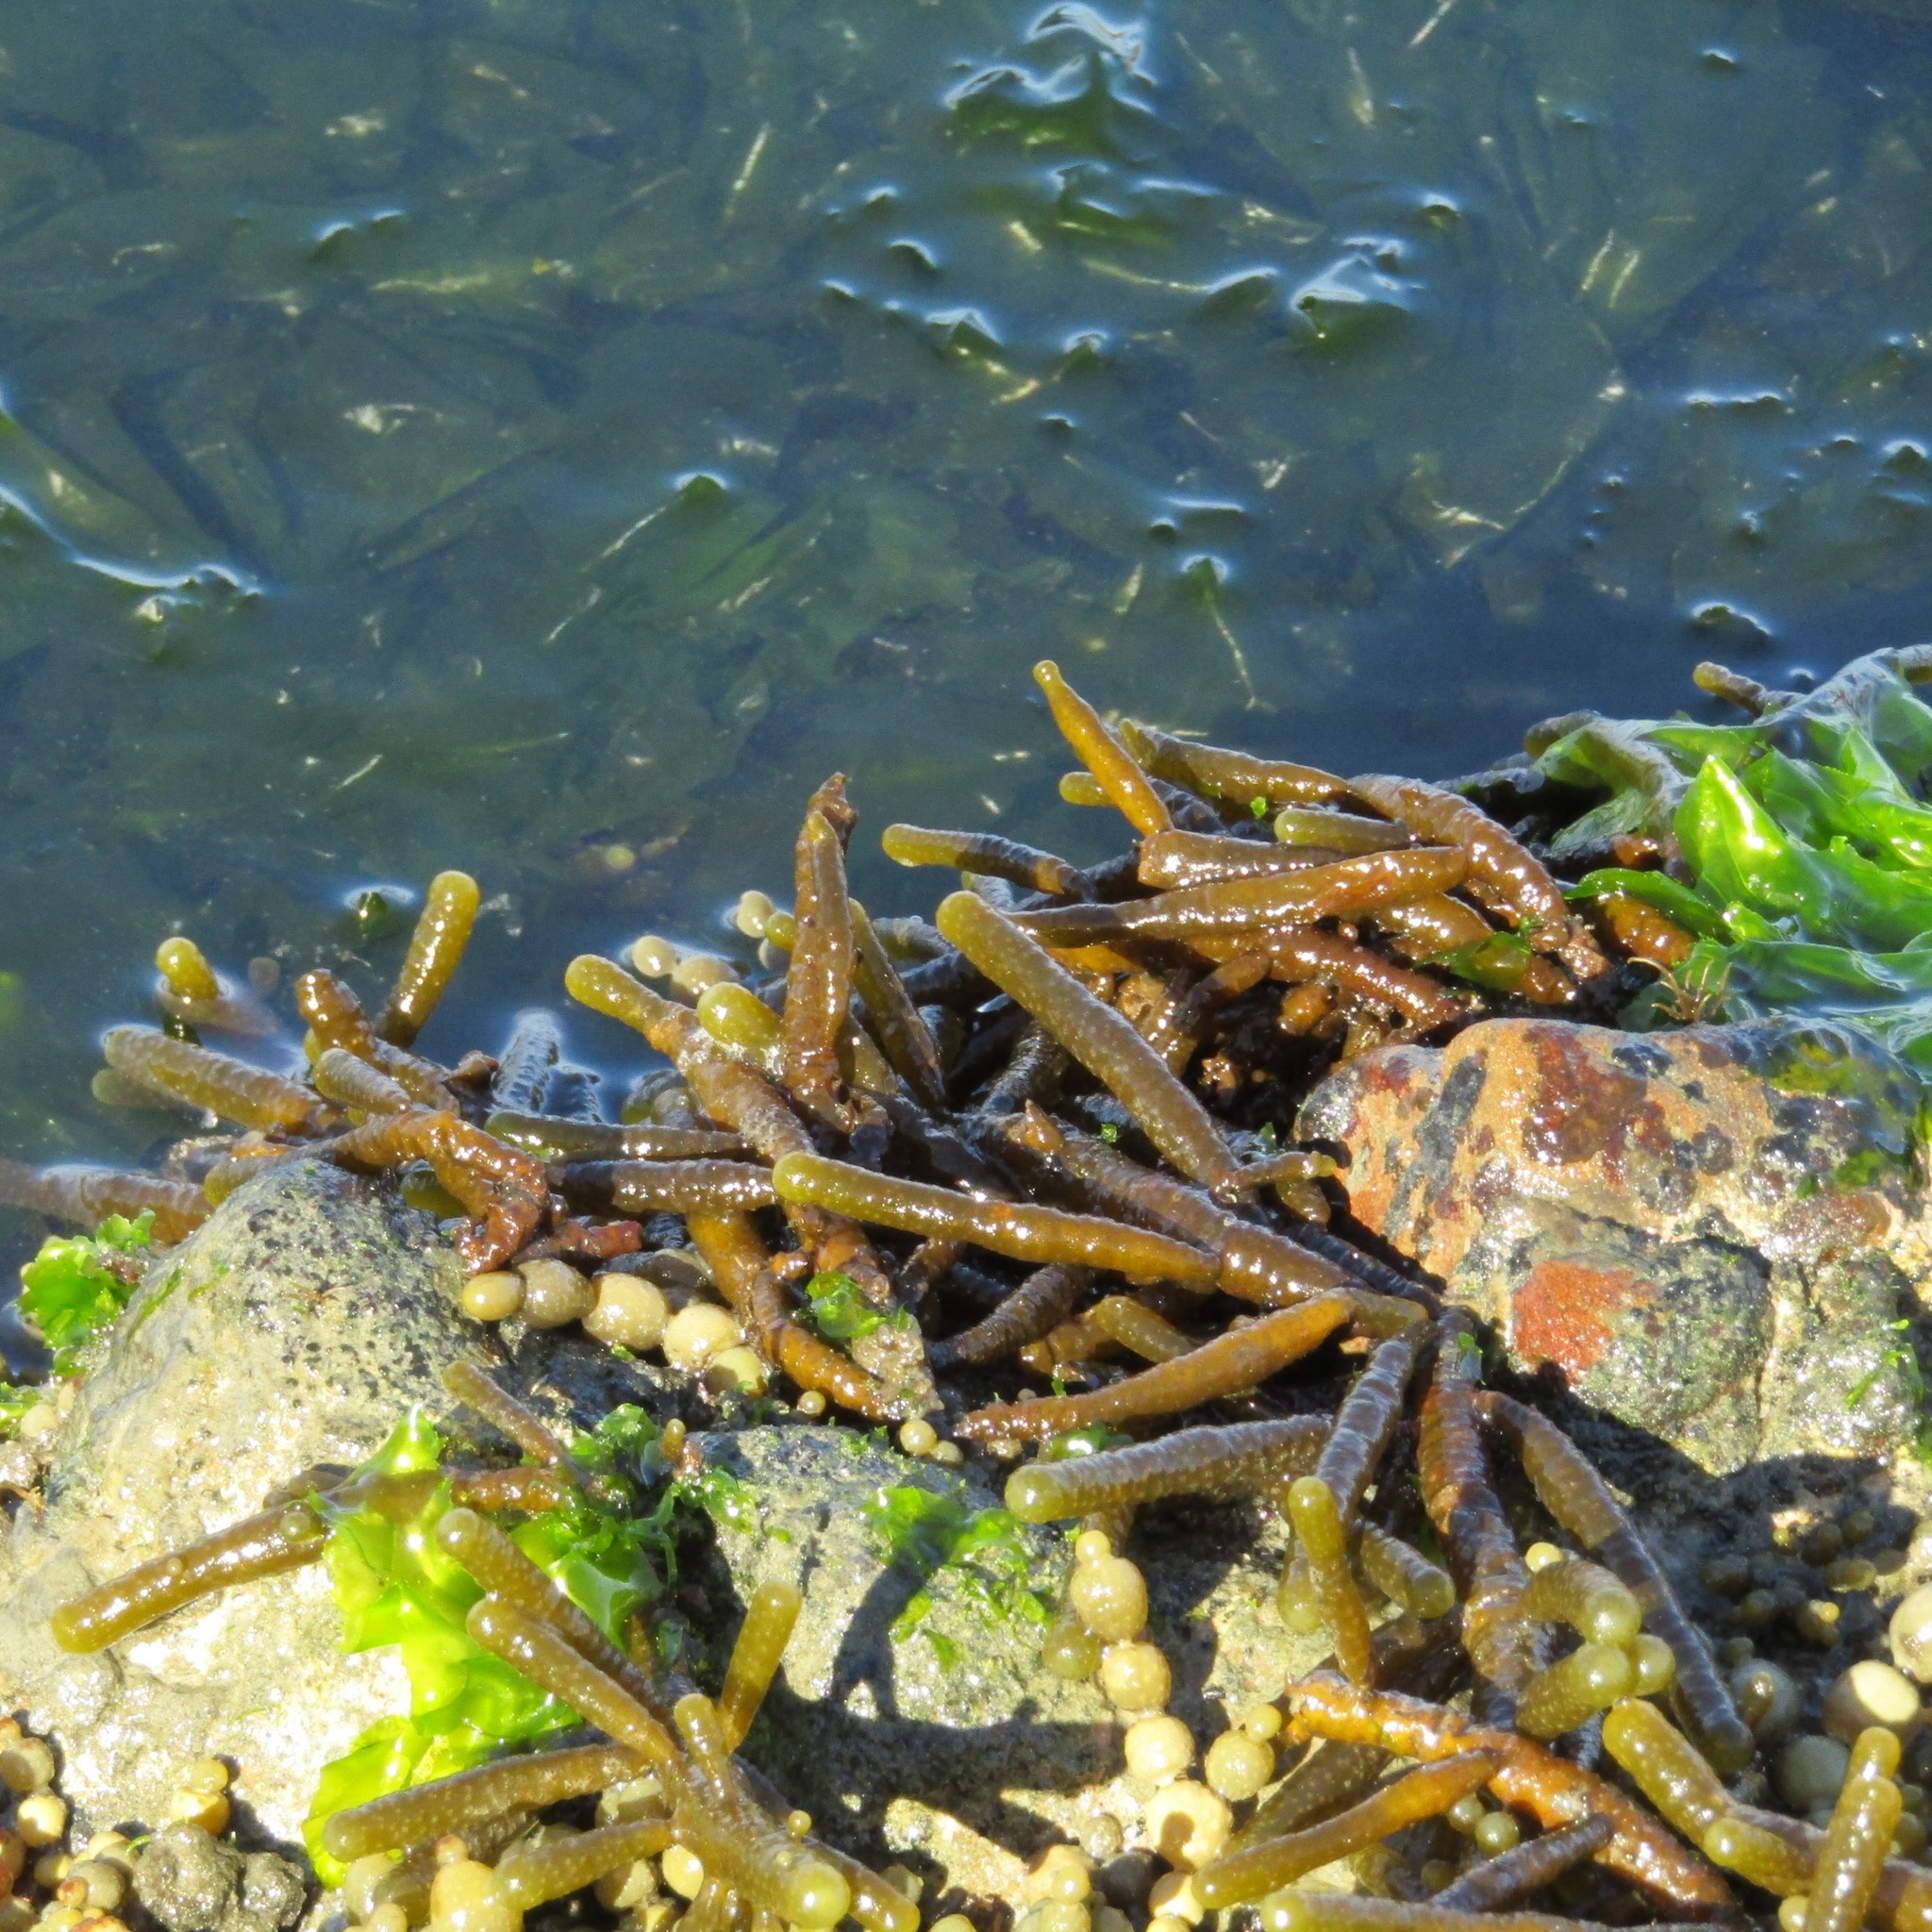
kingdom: Chromista
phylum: Ochrophyta
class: Phaeophyceae
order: Scytothamnales
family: Splachnidiaceae
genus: Splachnidium
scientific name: Splachnidium rugosum
